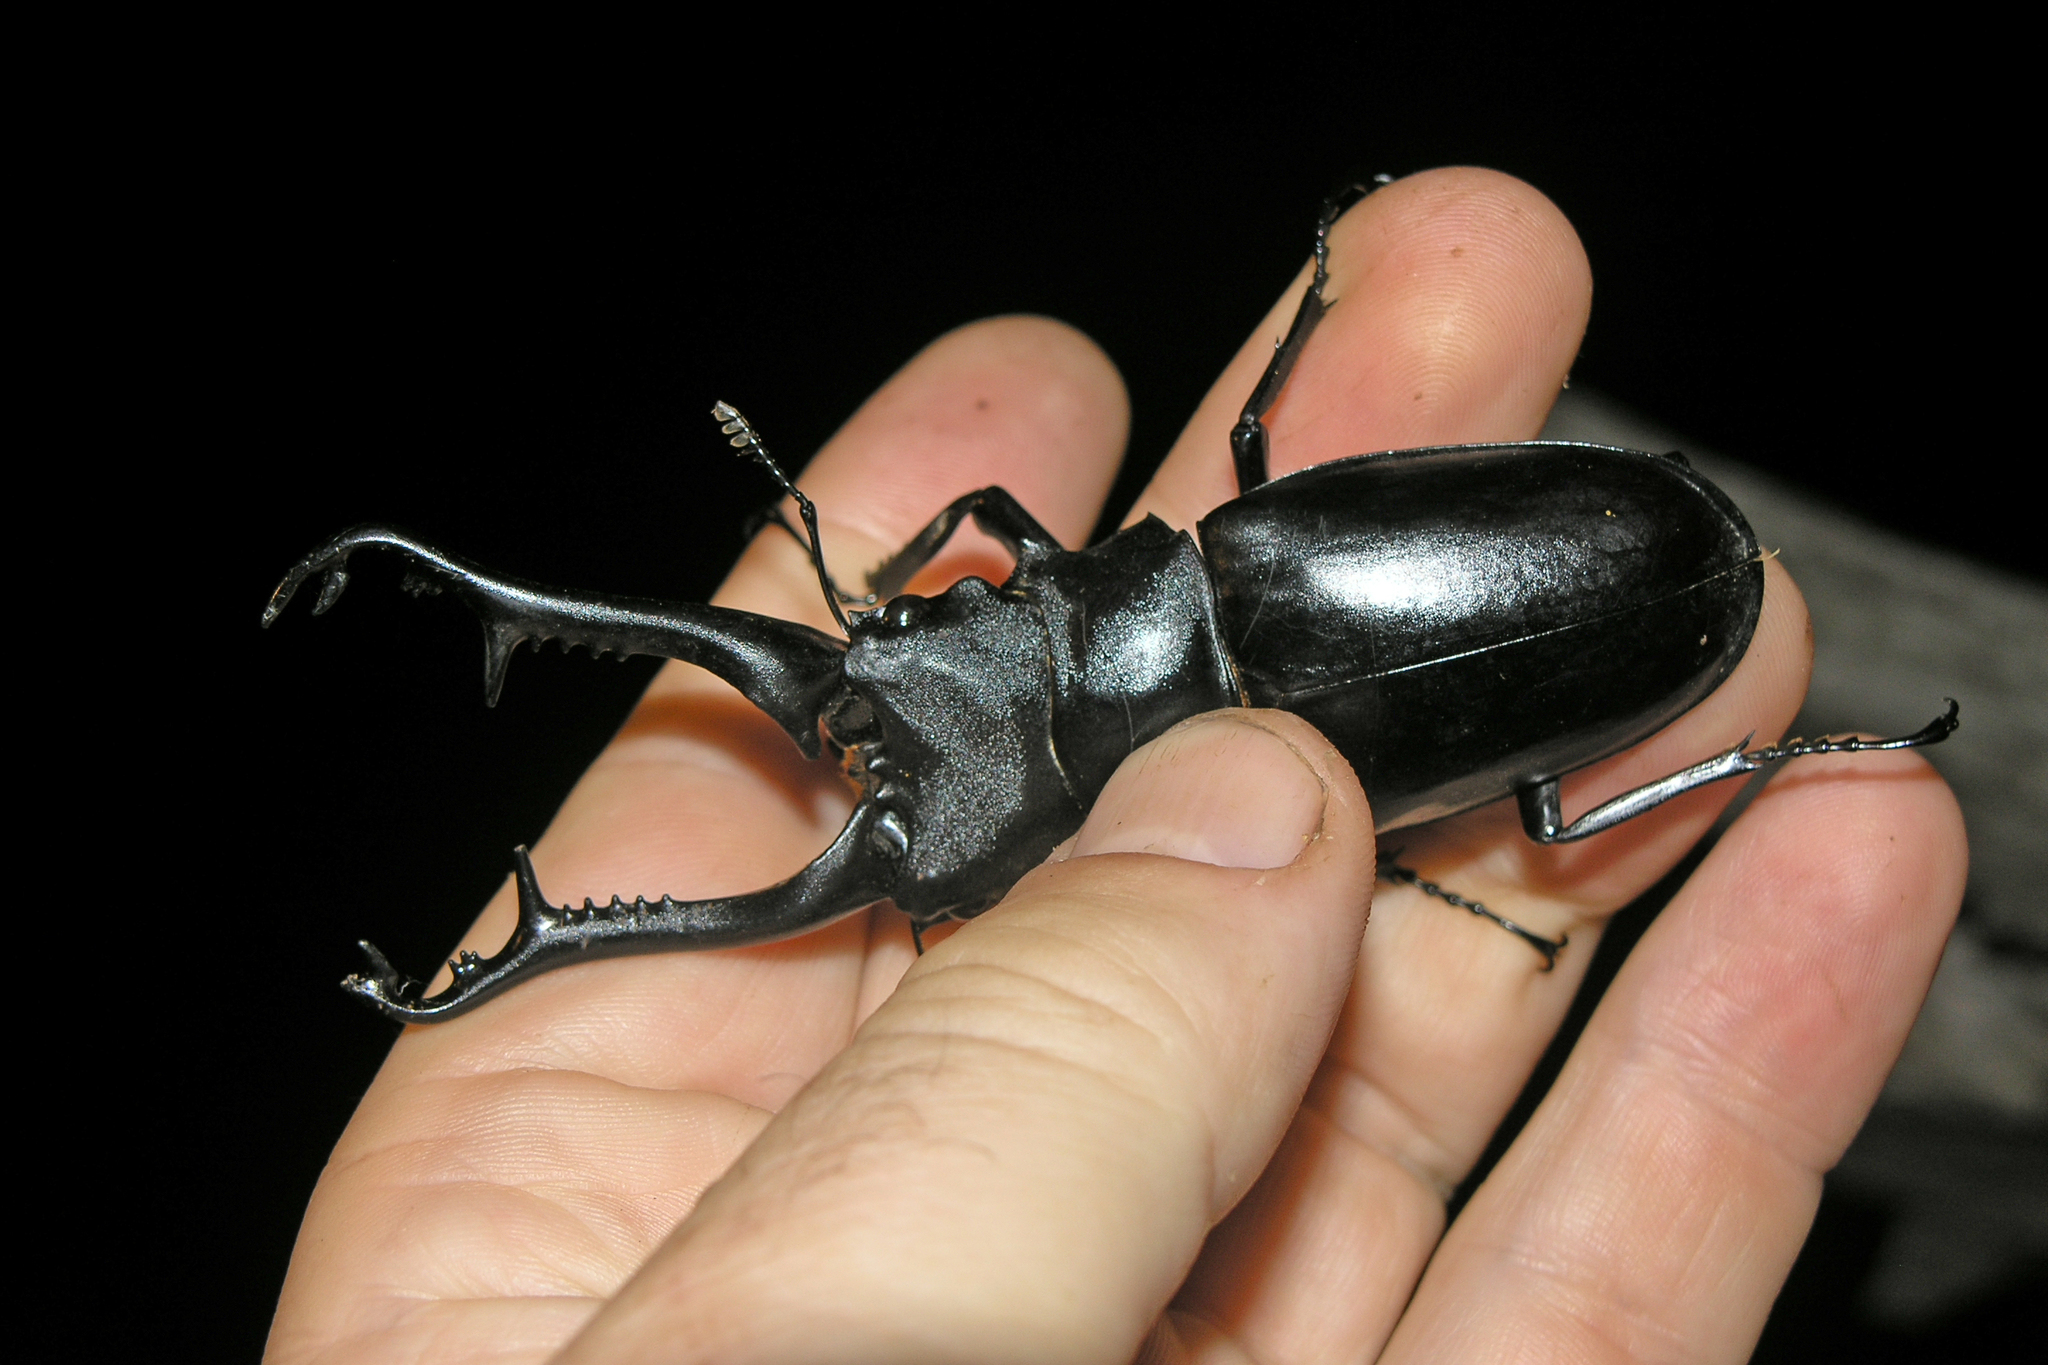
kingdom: Animalia
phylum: Arthropoda
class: Insecta
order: Coleoptera
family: Lucanidae
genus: Prosopocoilus
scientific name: Prosopocoilus girafa
